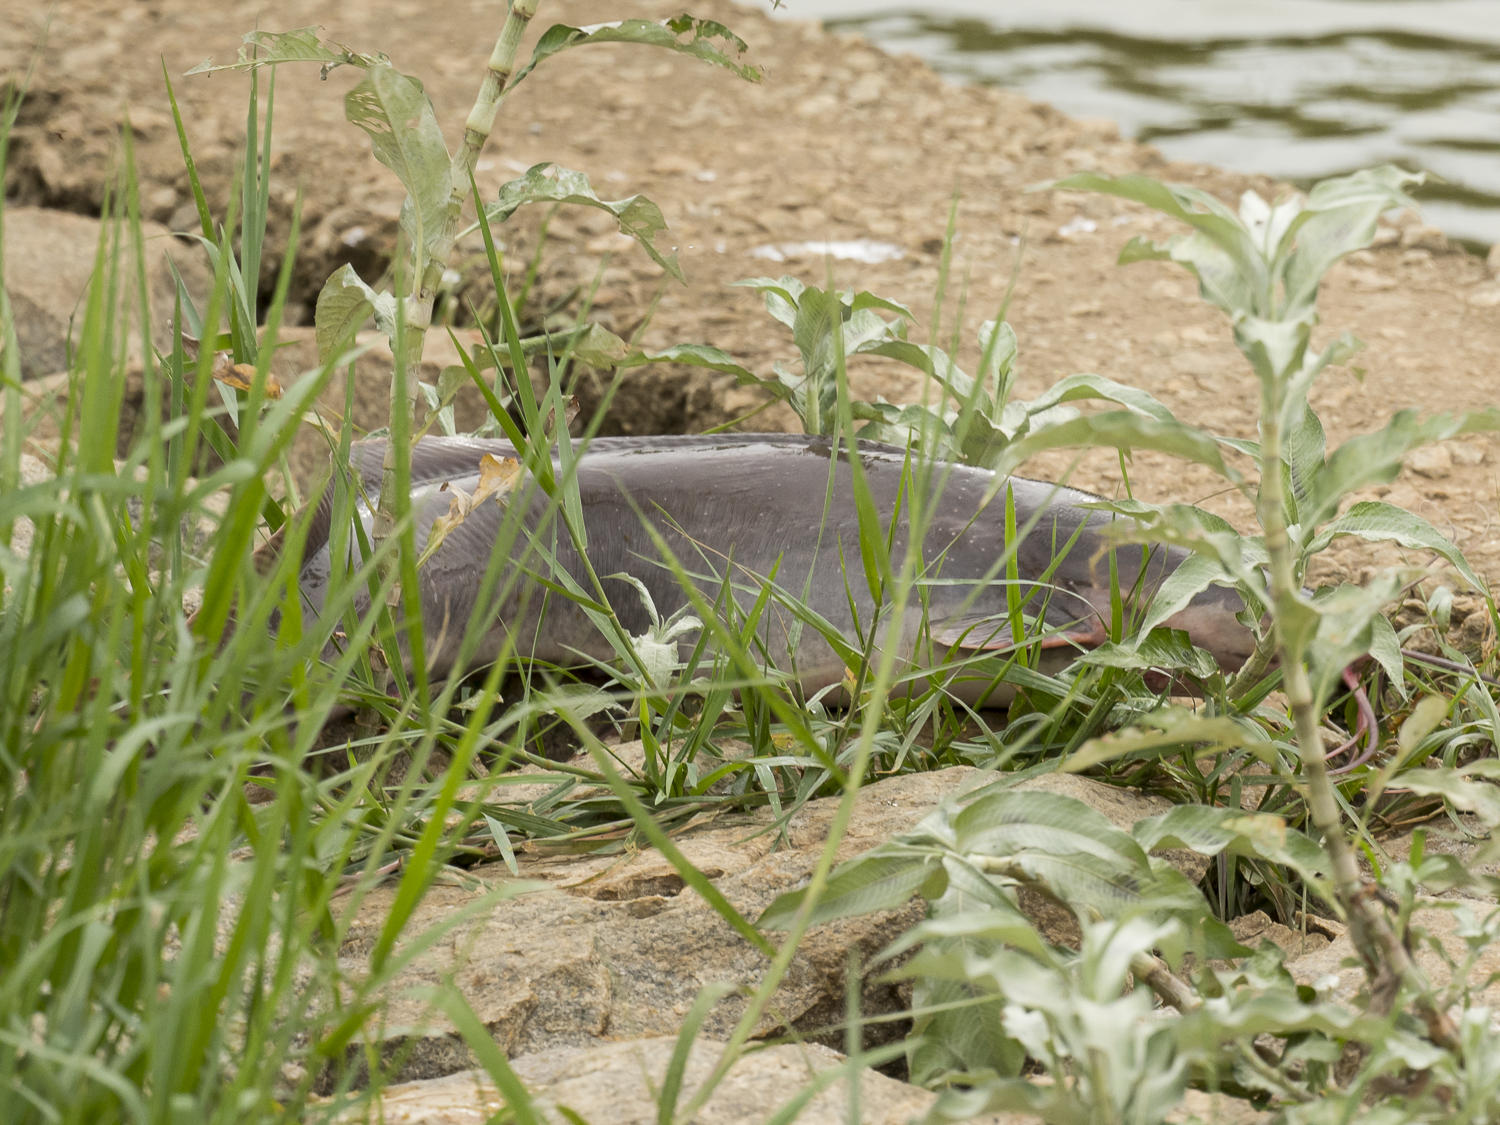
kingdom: Animalia
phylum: Chordata
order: Siluriformes
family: Clariidae
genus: Clarias
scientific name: Clarias gariepinus
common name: African catfish
